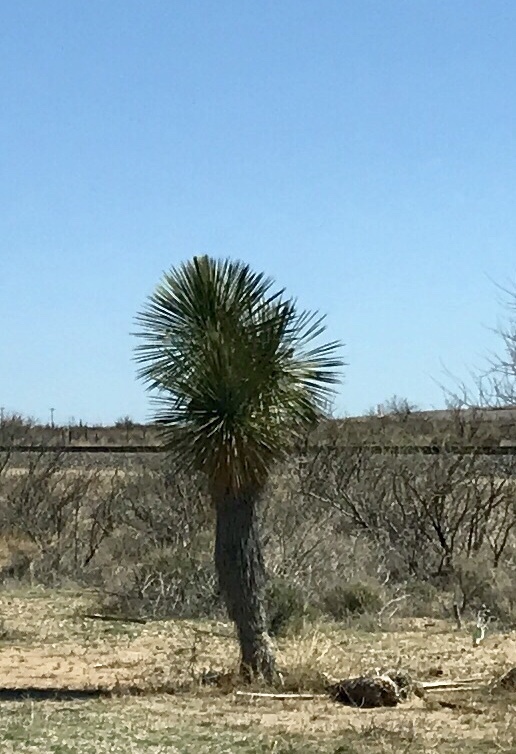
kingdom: Plantae
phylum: Tracheophyta
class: Liliopsida
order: Asparagales
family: Asparagaceae
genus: Yucca
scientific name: Yucca elata
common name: Palmella
